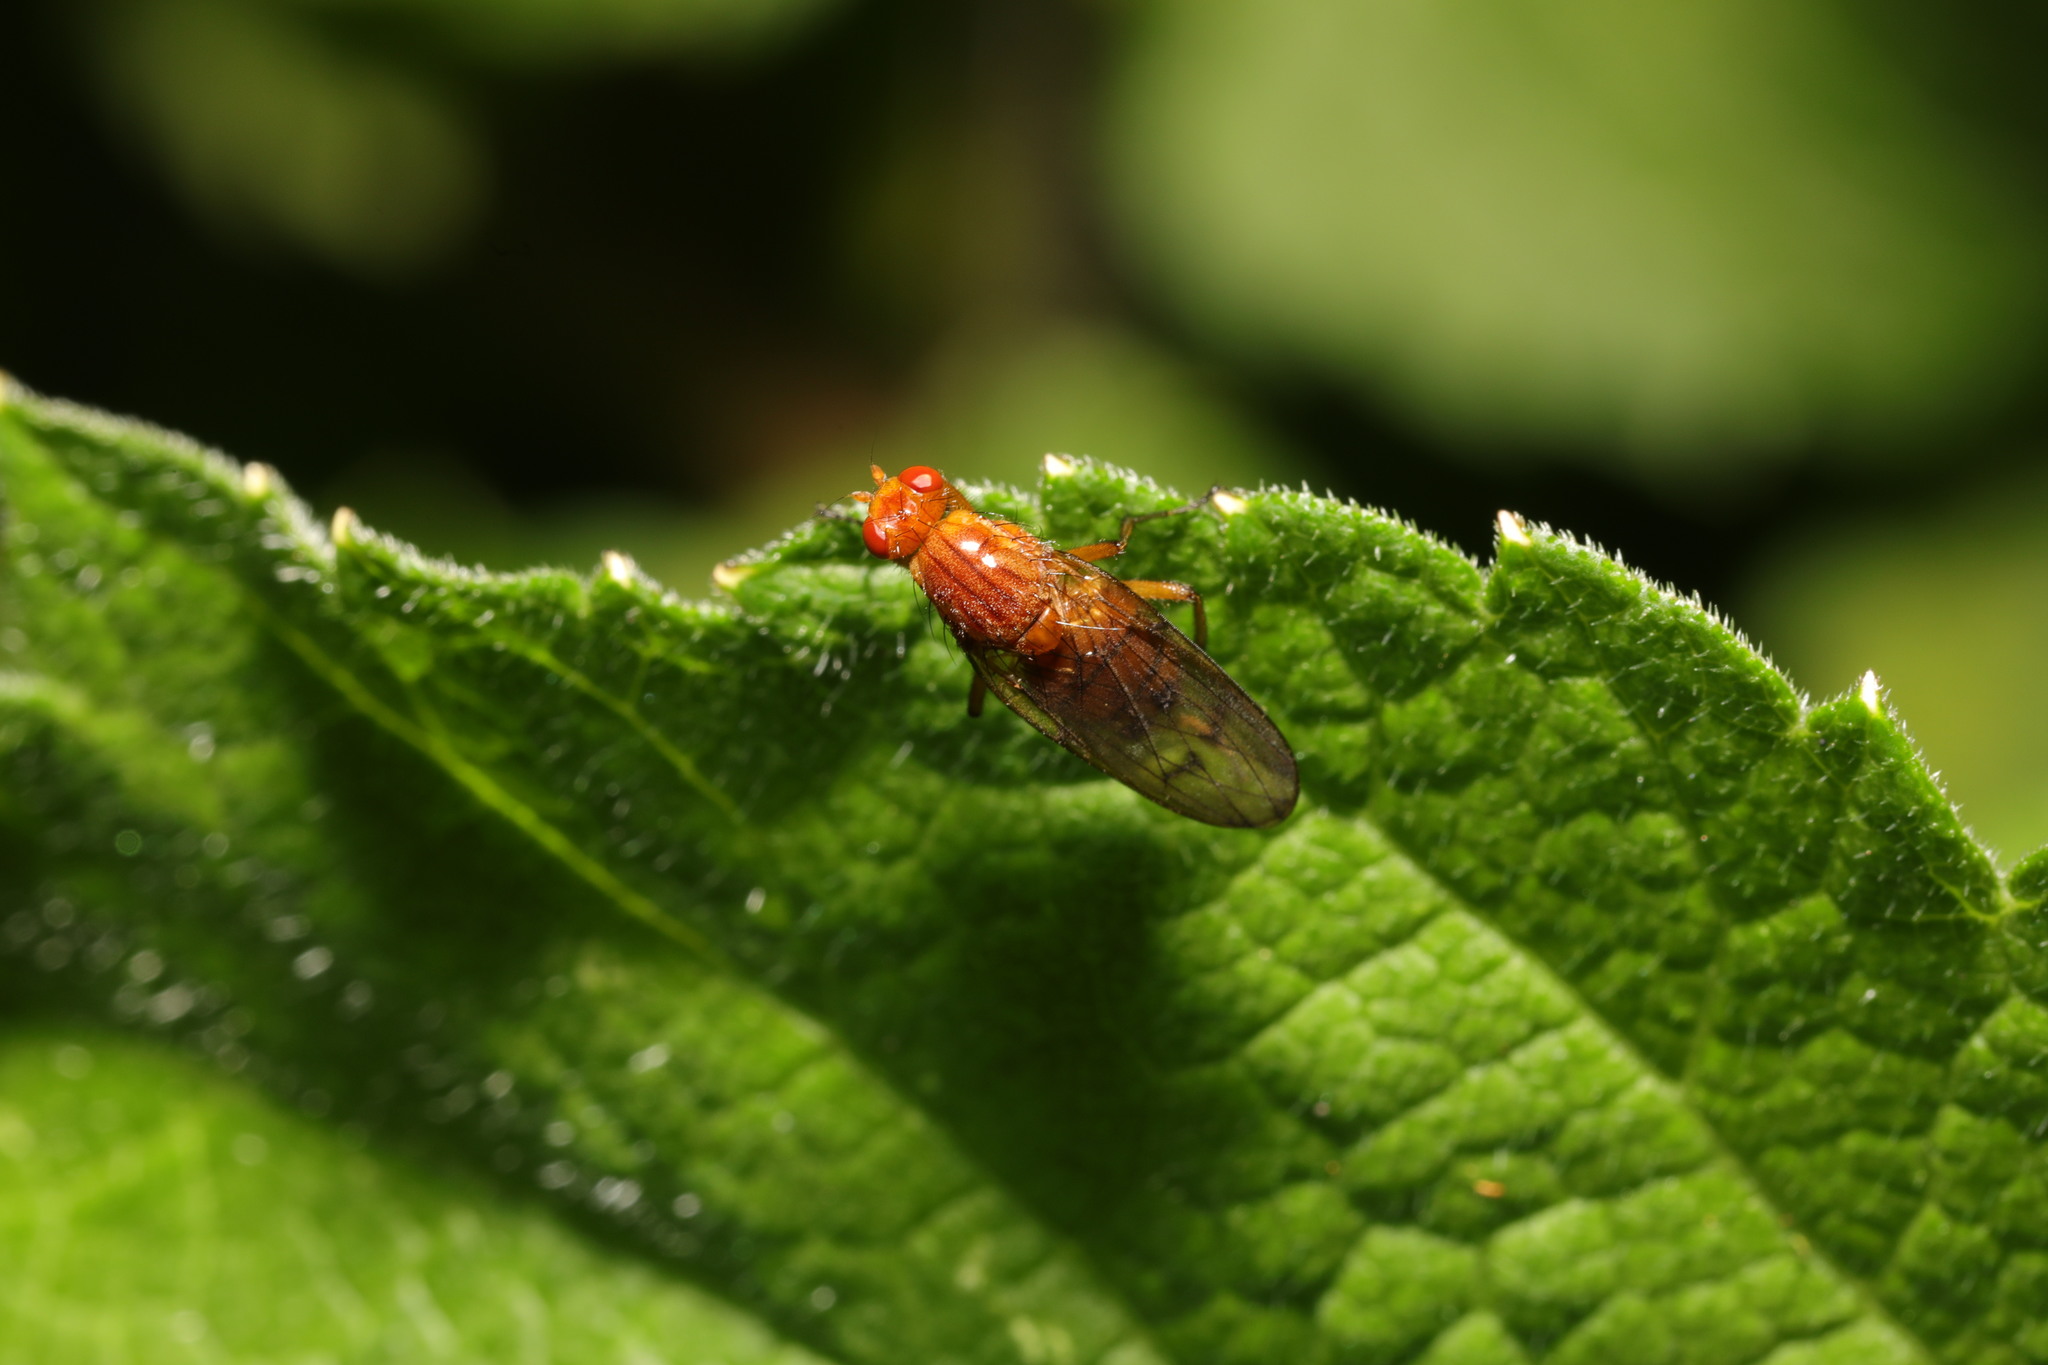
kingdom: Animalia
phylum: Arthropoda
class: Insecta
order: Diptera
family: Dryomyzidae
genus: Dryomyza
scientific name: Dryomyza anilis
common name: Marsh fly
